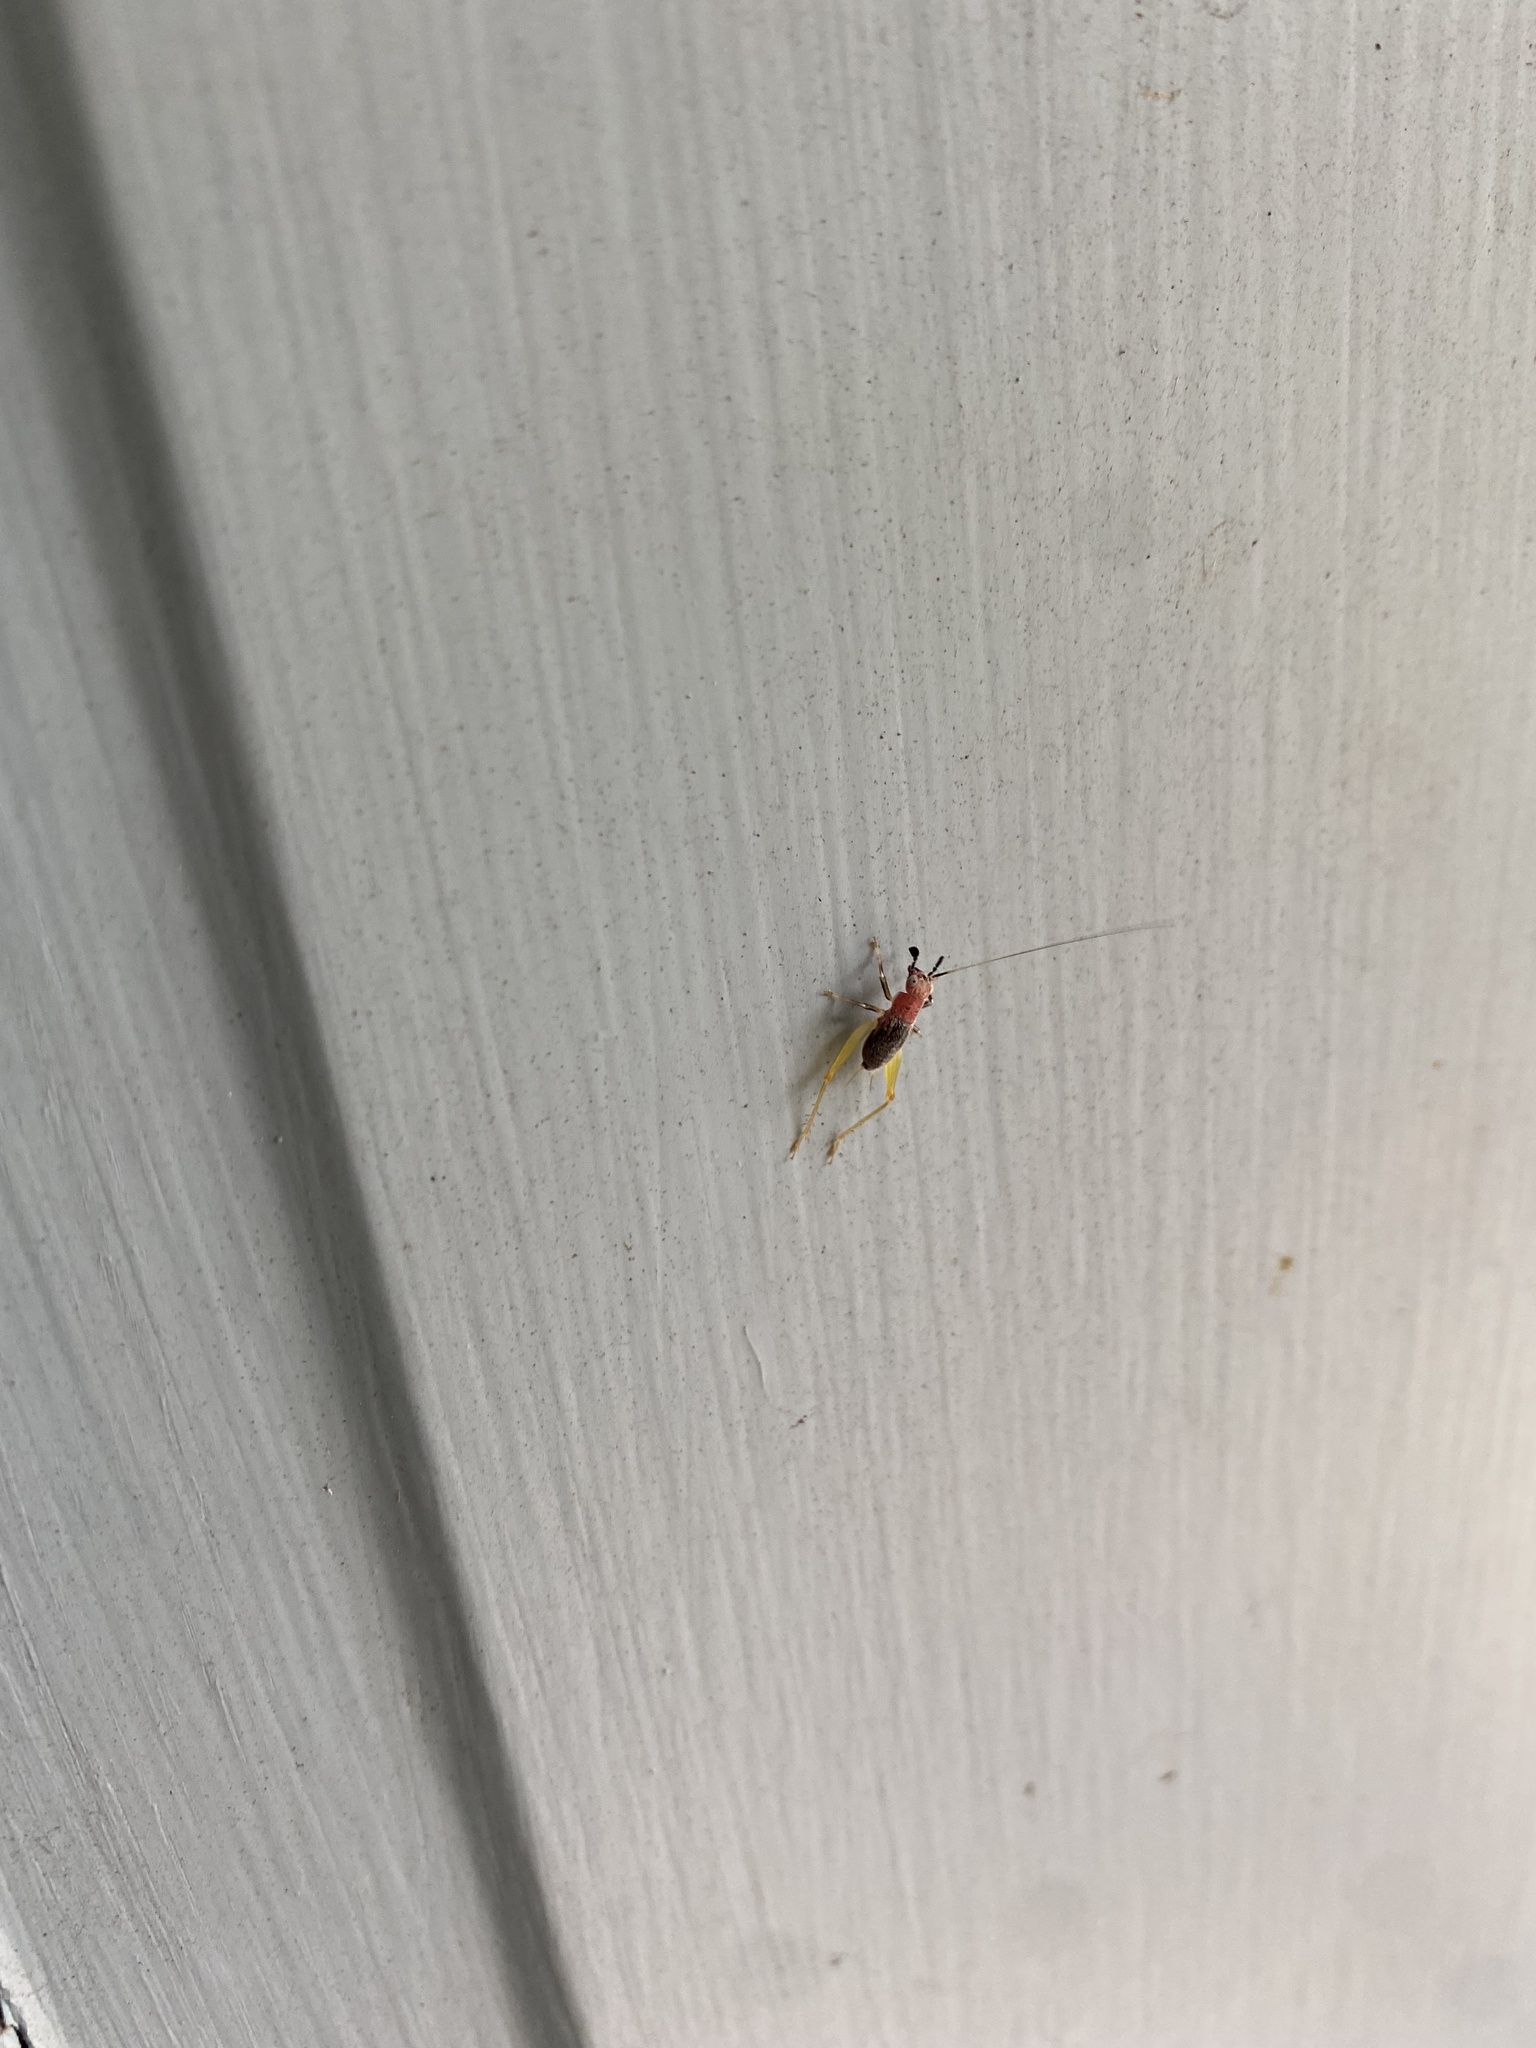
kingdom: Animalia
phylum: Arthropoda
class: Insecta
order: Orthoptera
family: Trigonidiidae
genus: Phyllopalpus
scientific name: Phyllopalpus pulchellus
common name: Handsome trig
